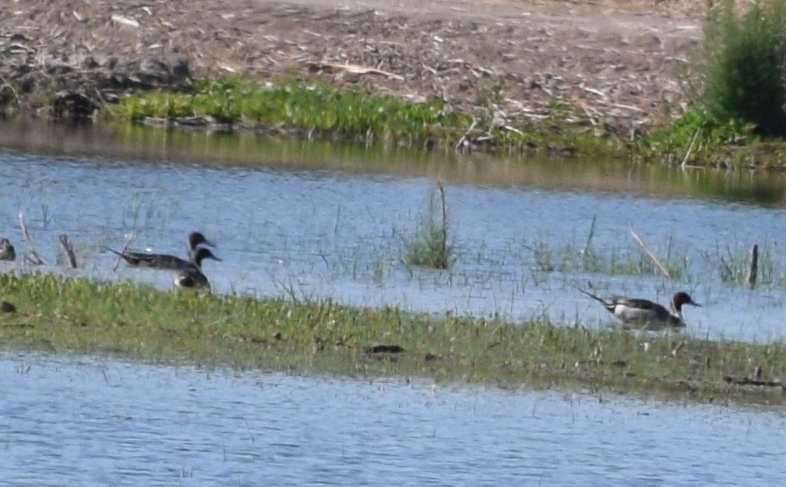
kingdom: Animalia
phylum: Chordata
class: Aves
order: Anseriformes
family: Anatidae
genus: Anas
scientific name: Anas acuta
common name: Northern pintail
